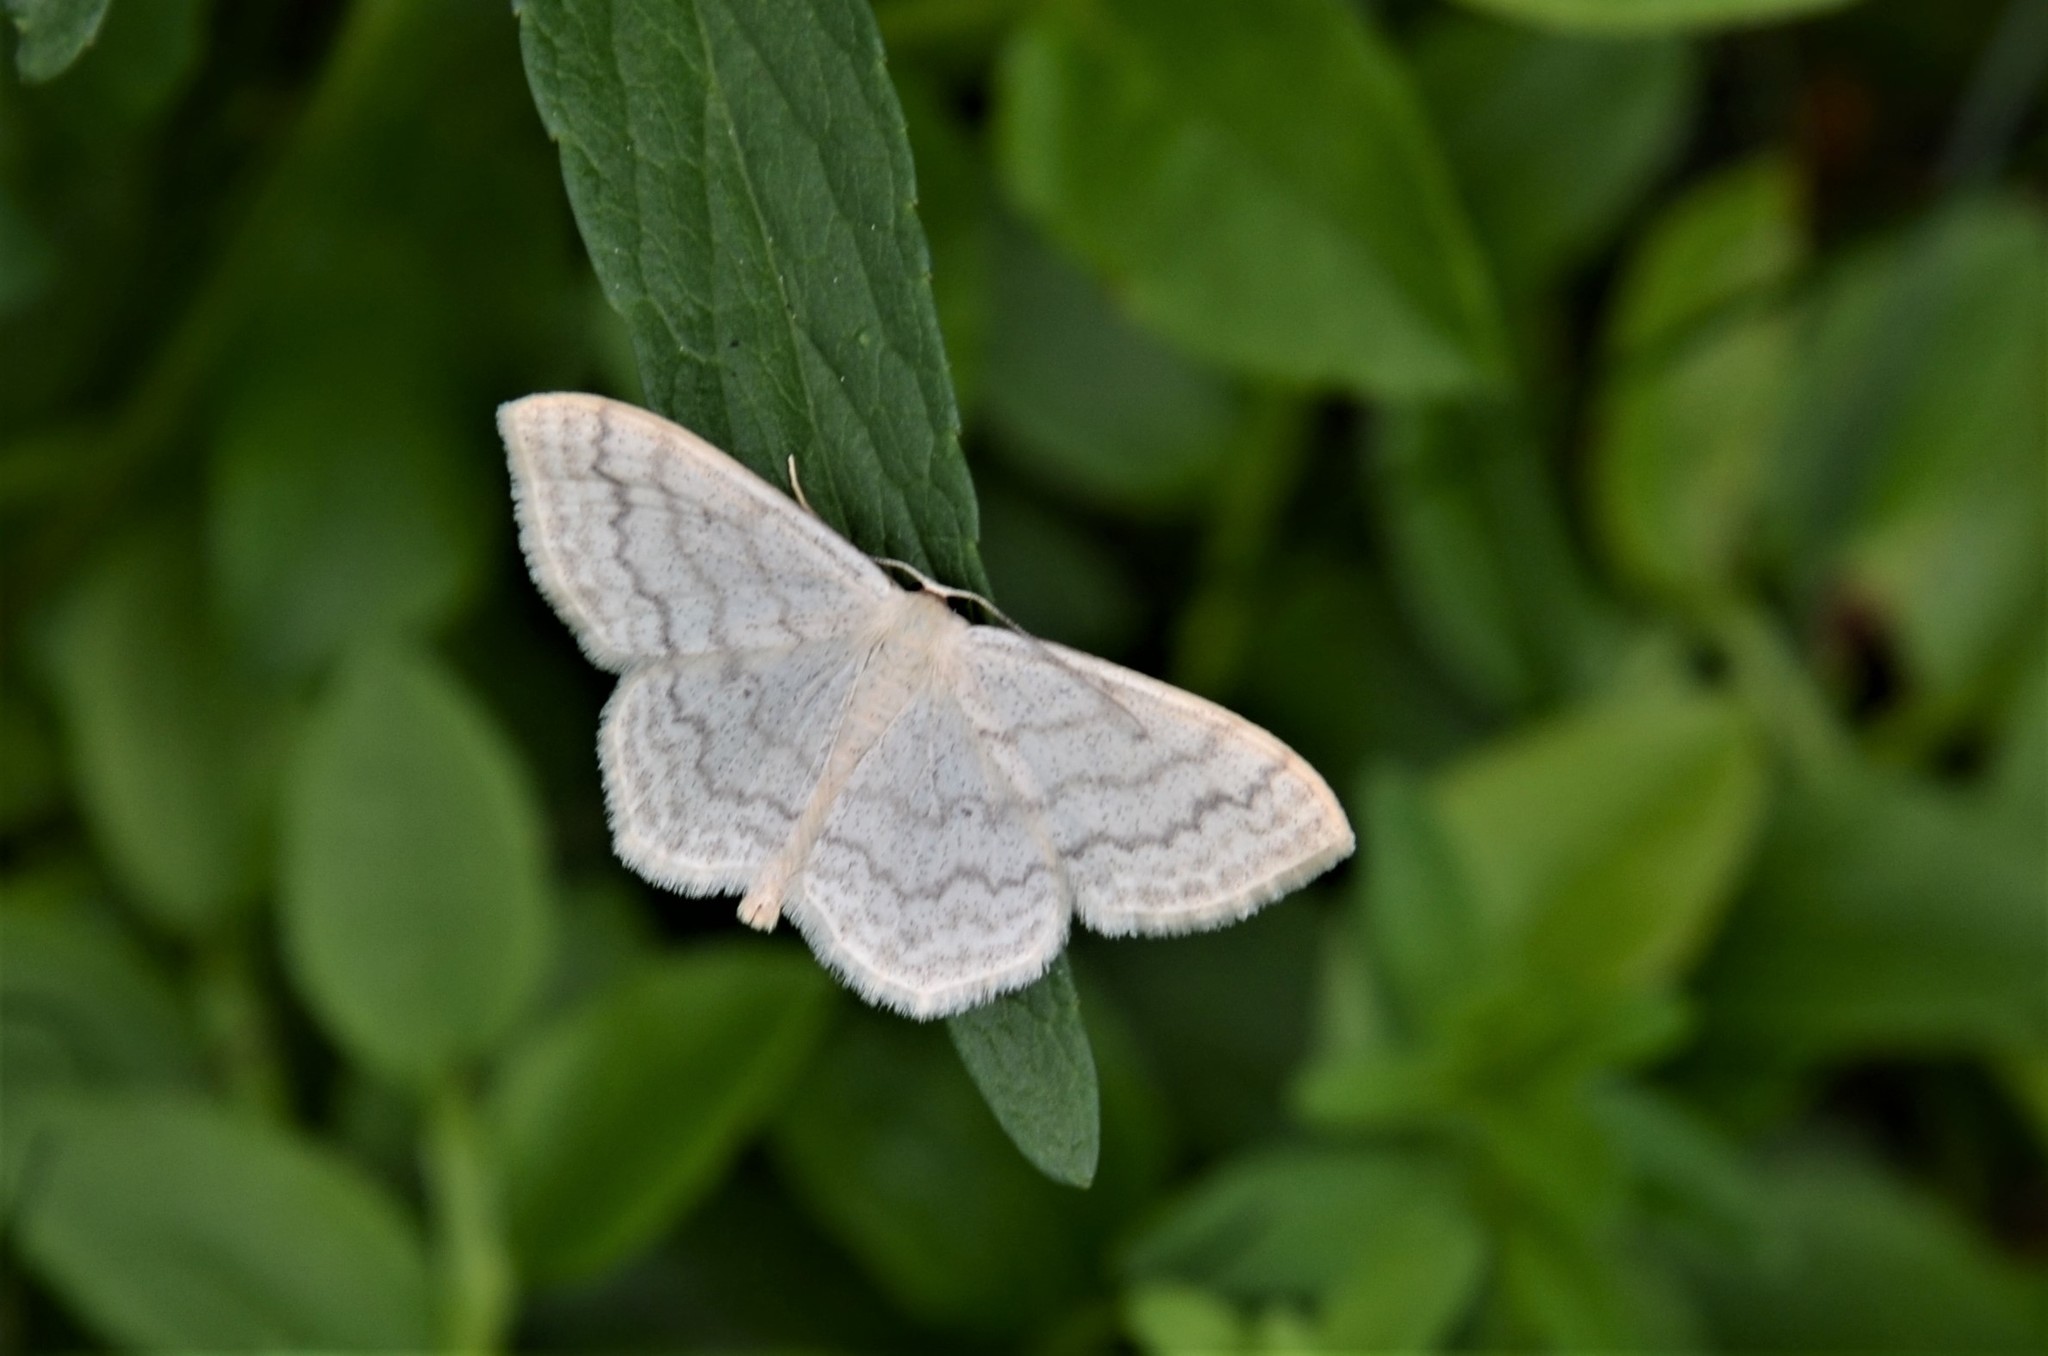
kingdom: Animalia
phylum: Arthropoda
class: Insecta
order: Lepidoptera
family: Geometridae
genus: Scopula
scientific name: Scopula floslactata
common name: Cream wave
